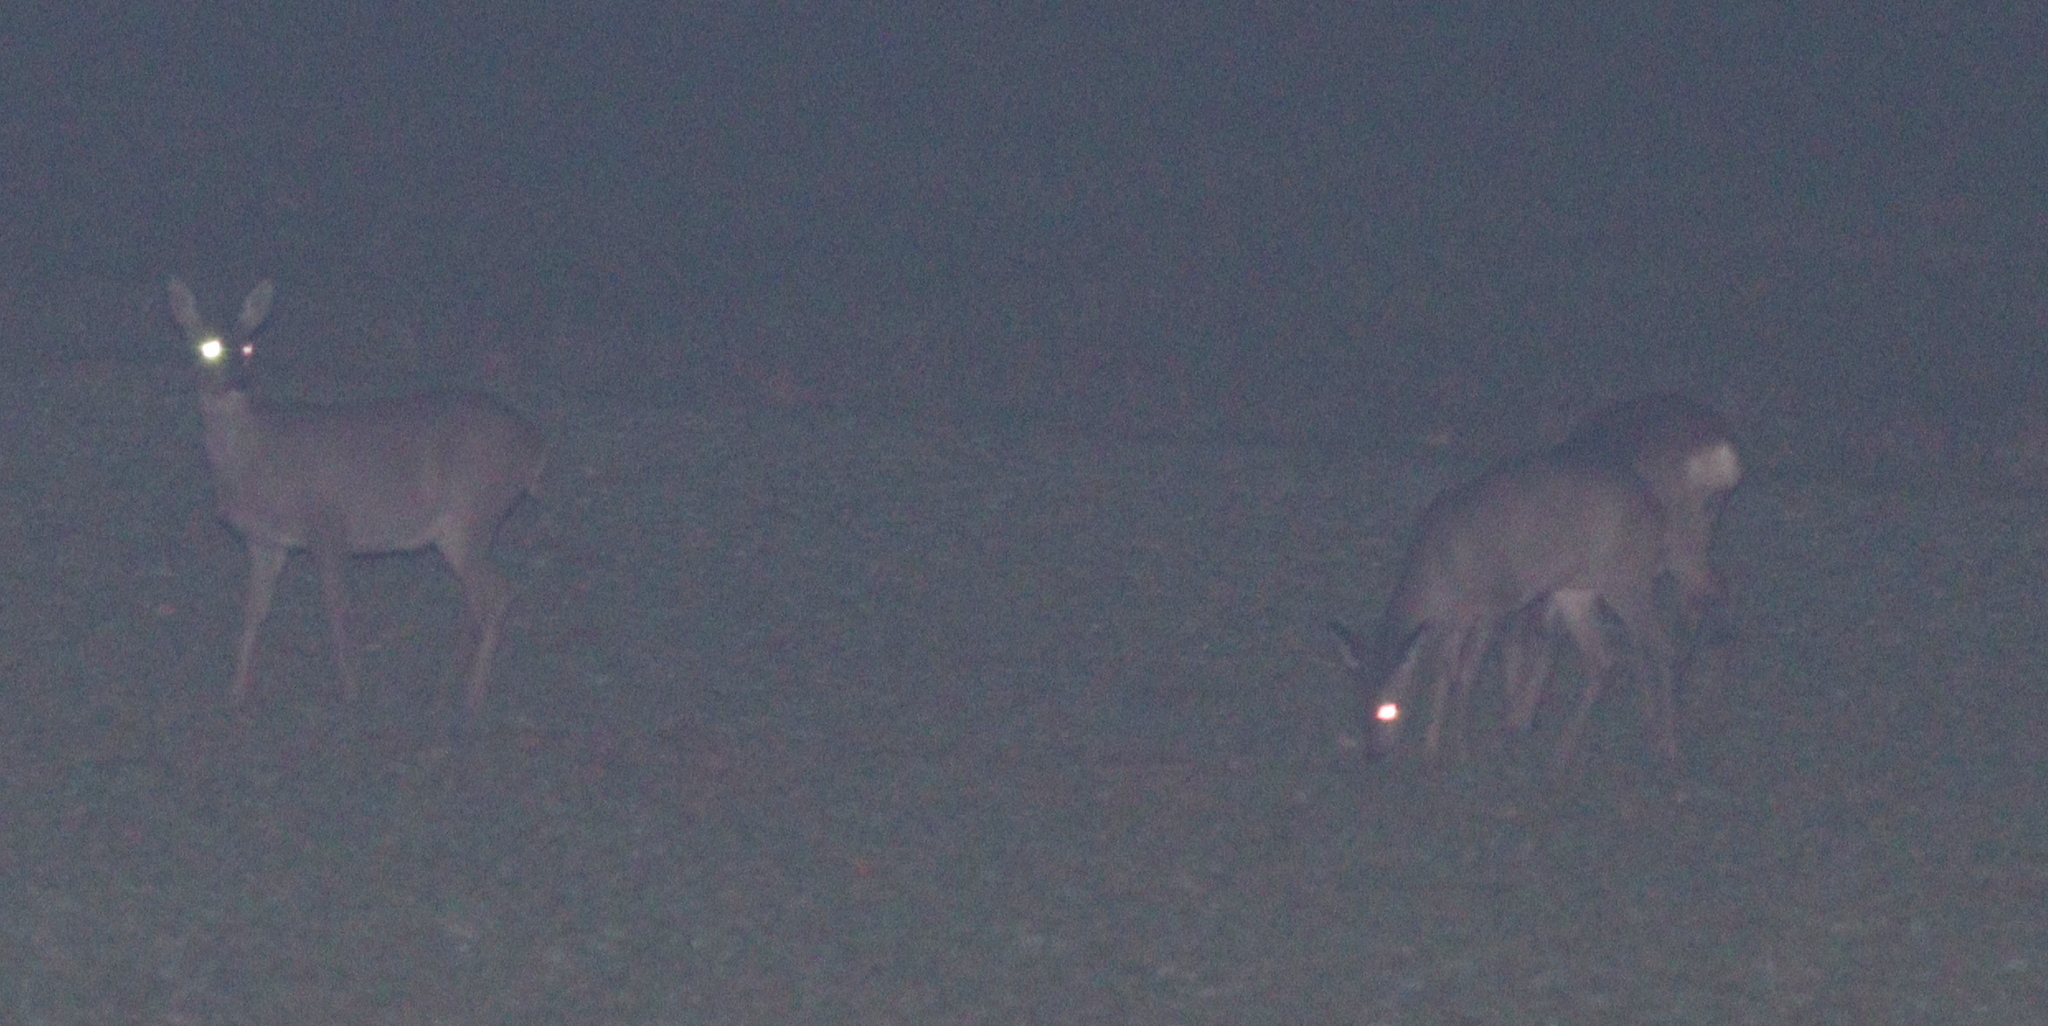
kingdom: Animalia
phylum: Chordata
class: Mammalia
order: Artiodactyla
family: Cervidae
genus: Capreolus
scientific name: Capreolus capreolus
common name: Western roe deer
